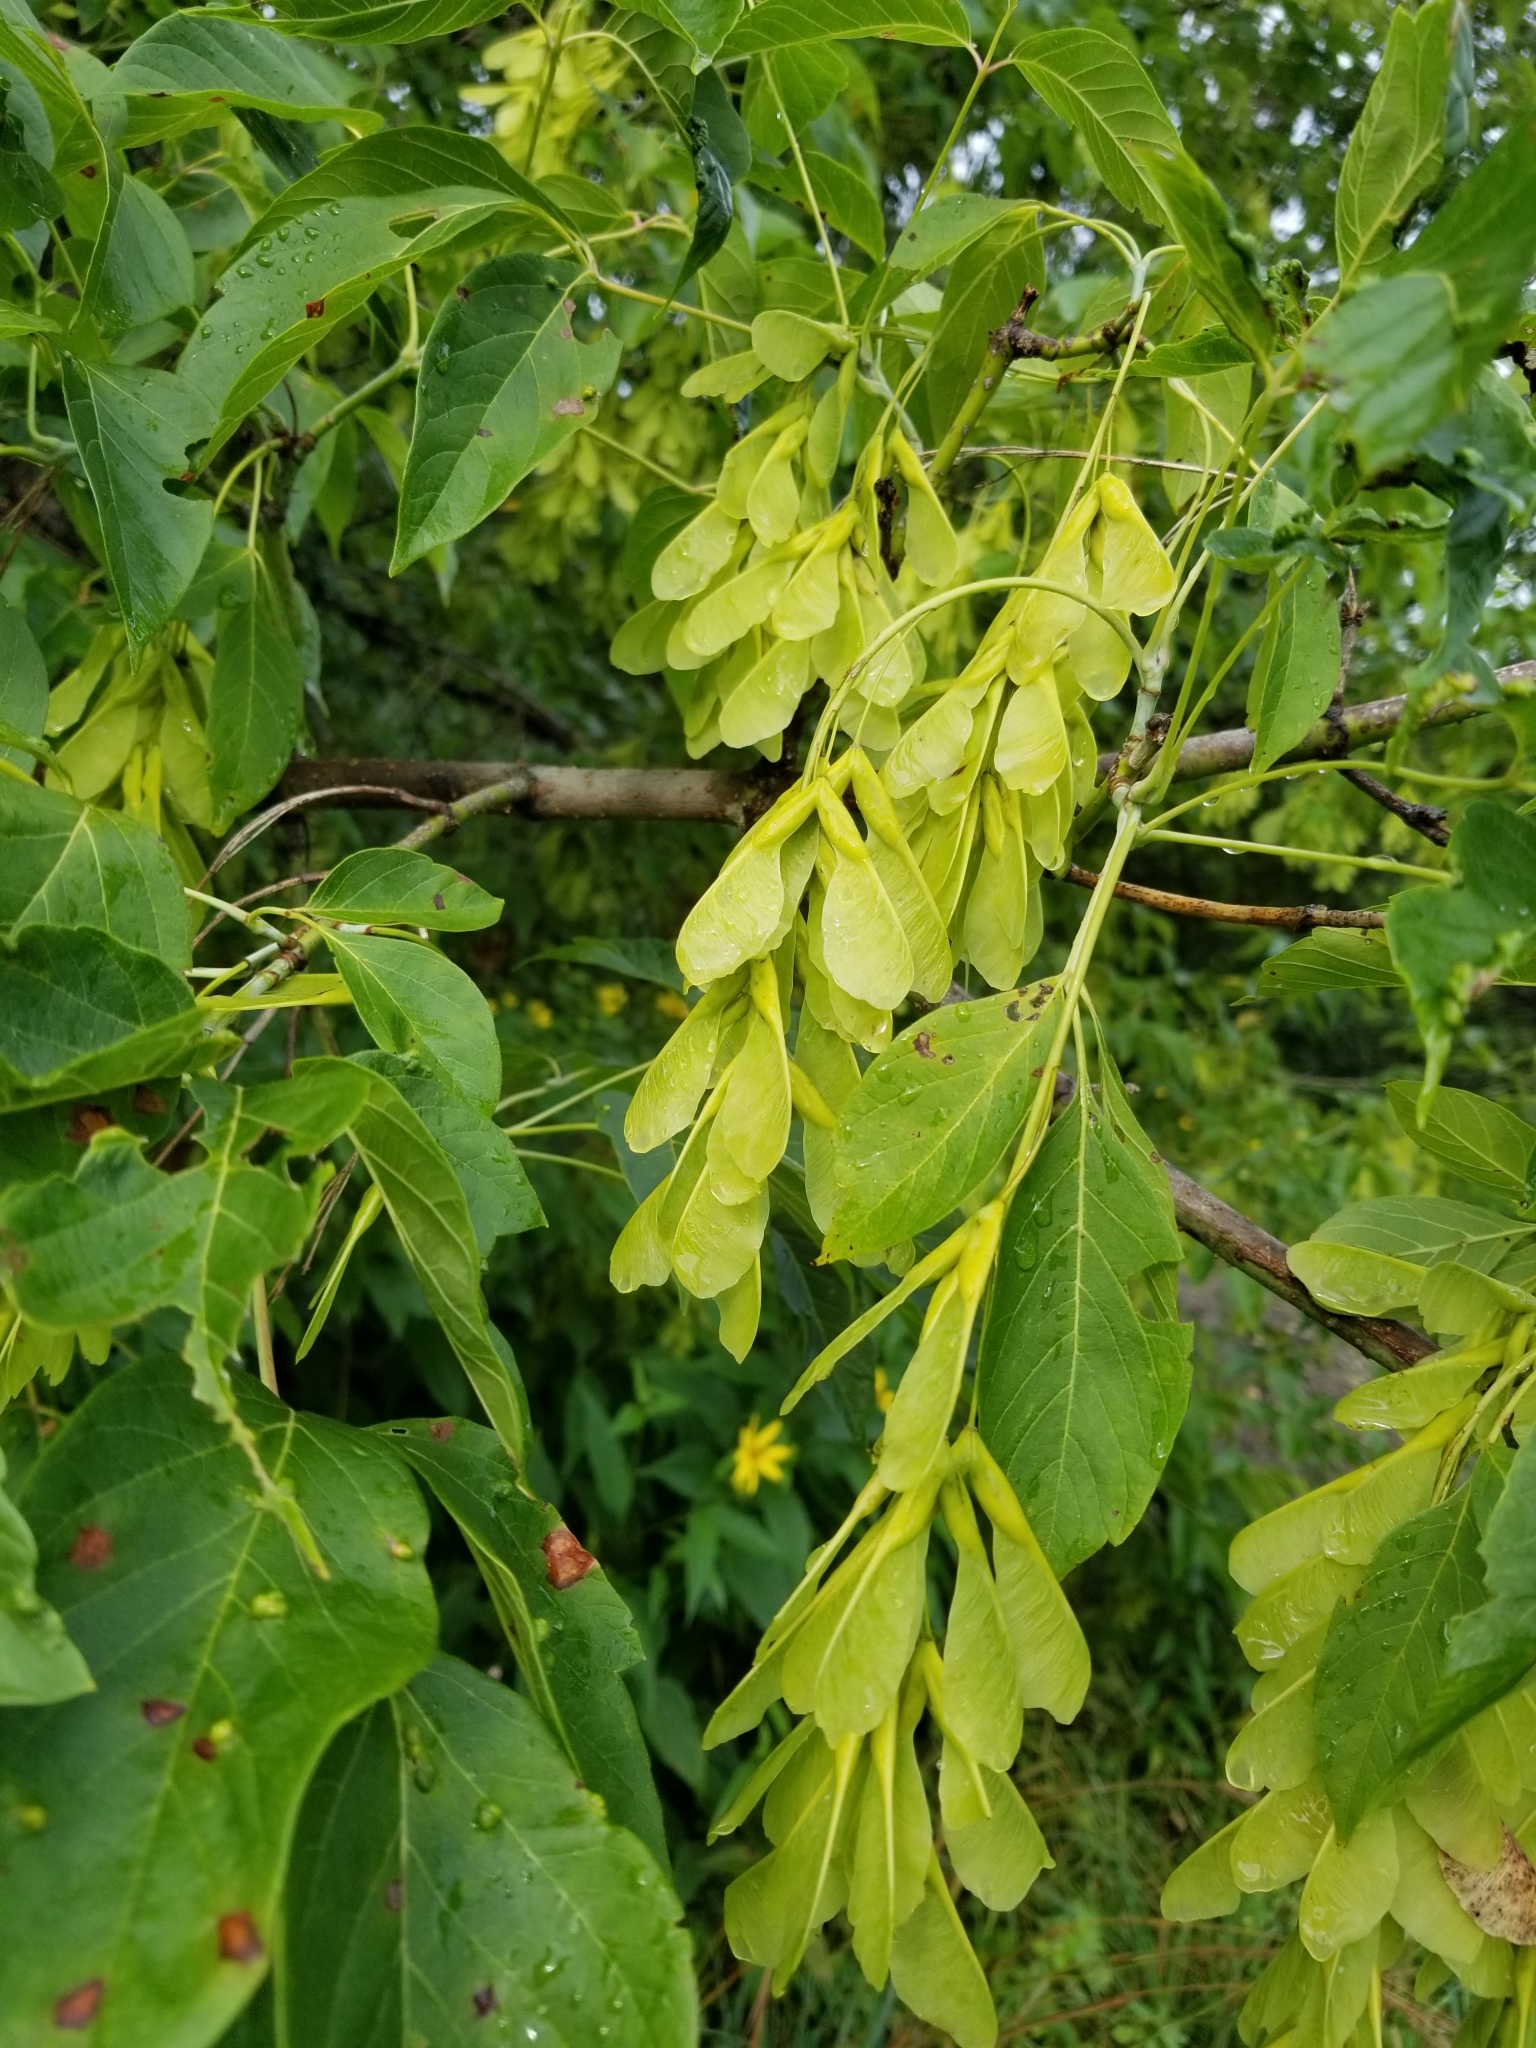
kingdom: Plantae
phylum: Tracheophyta
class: Magnoliopsida
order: Sapindales
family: Sapindaceae
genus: Acer
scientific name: Acer negundo
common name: Ashleaf maple
